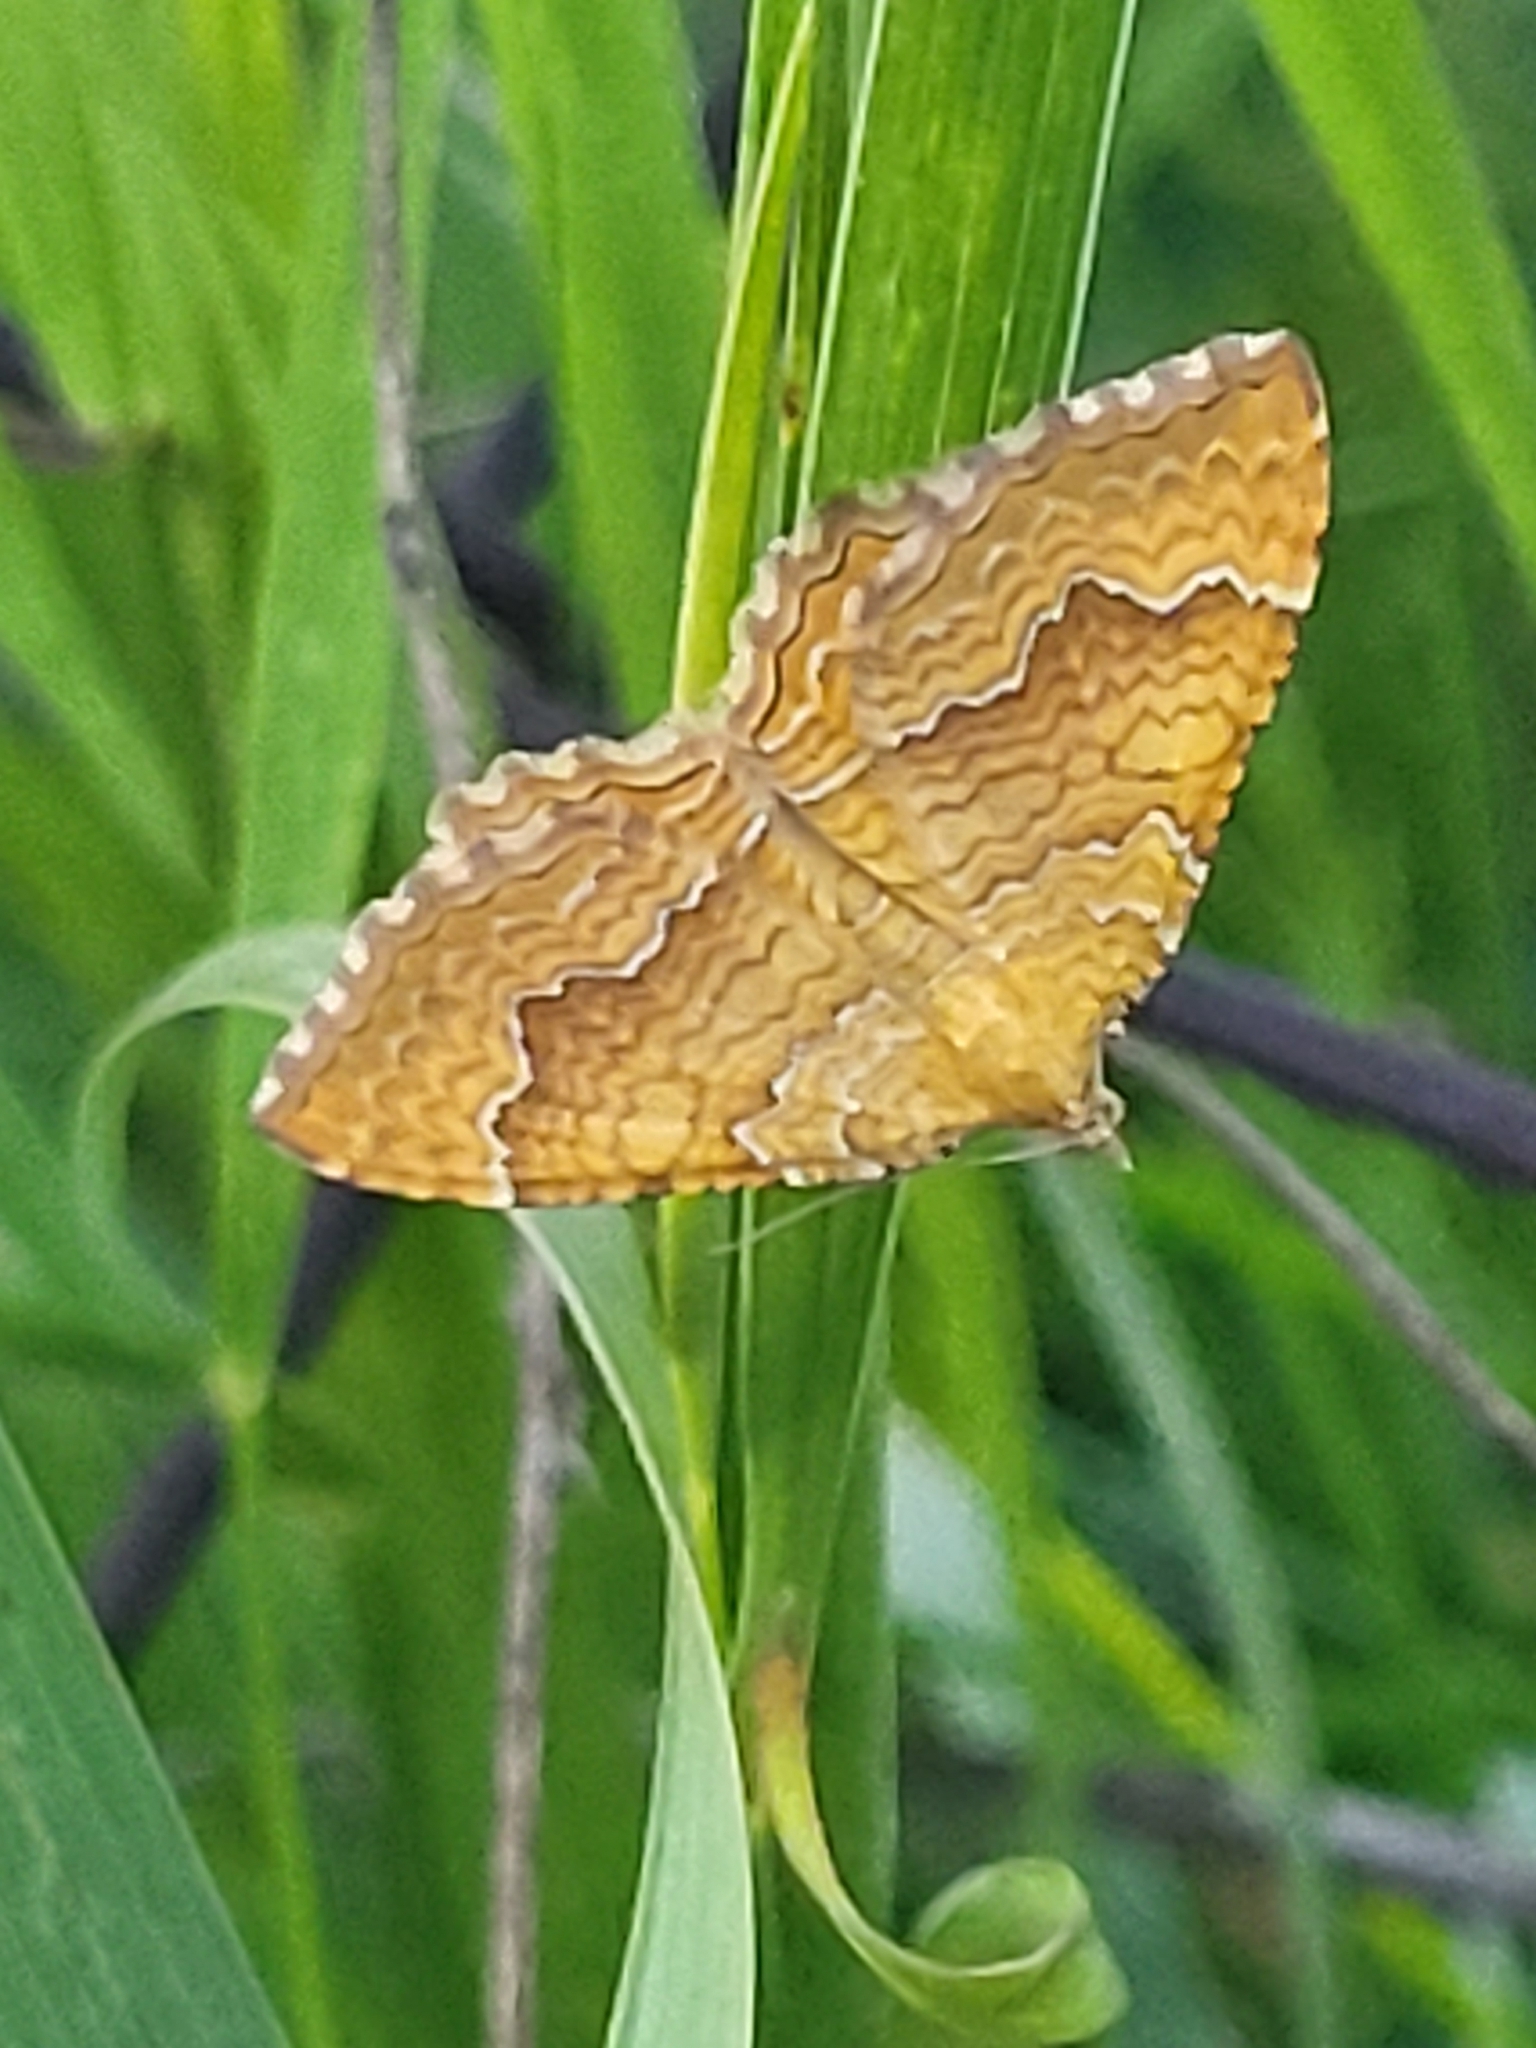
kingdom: Animalia
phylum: Arthropoda
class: Insecta
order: Lepidoptera
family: Geometridae
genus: Camptogramma
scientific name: Camptogramma bilineata
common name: Yellow shell
